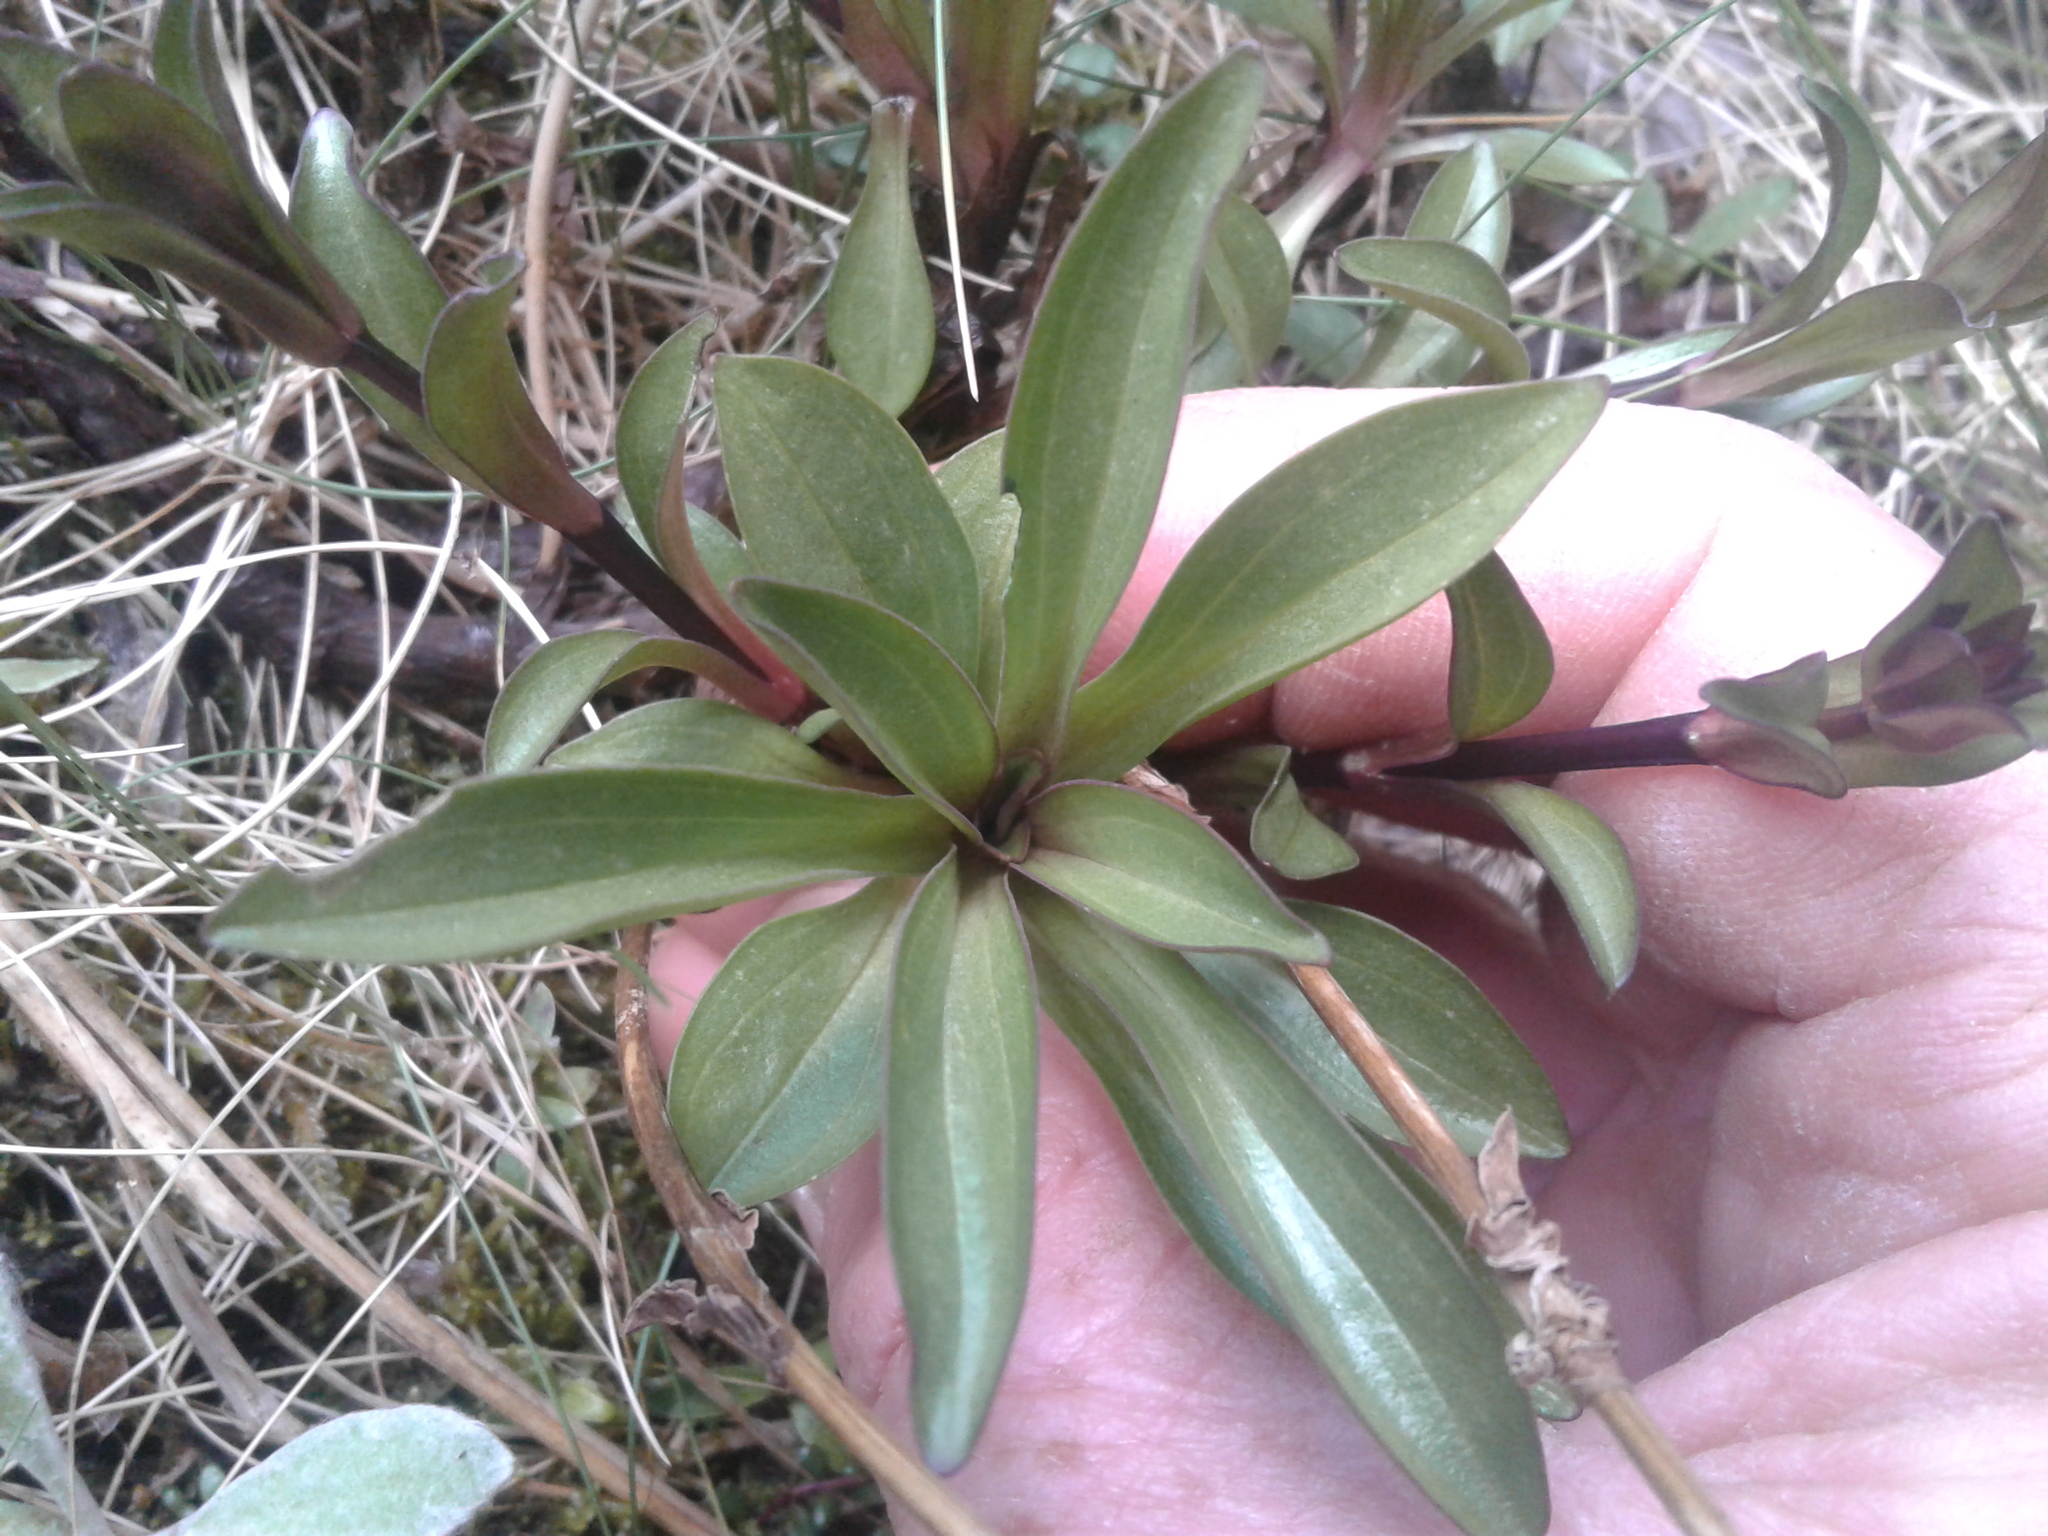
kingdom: Plantae
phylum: Tracheophyta
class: Magnoliopsida
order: Gentianales
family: Gentianaceae
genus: Gentianella
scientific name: Gentianella
